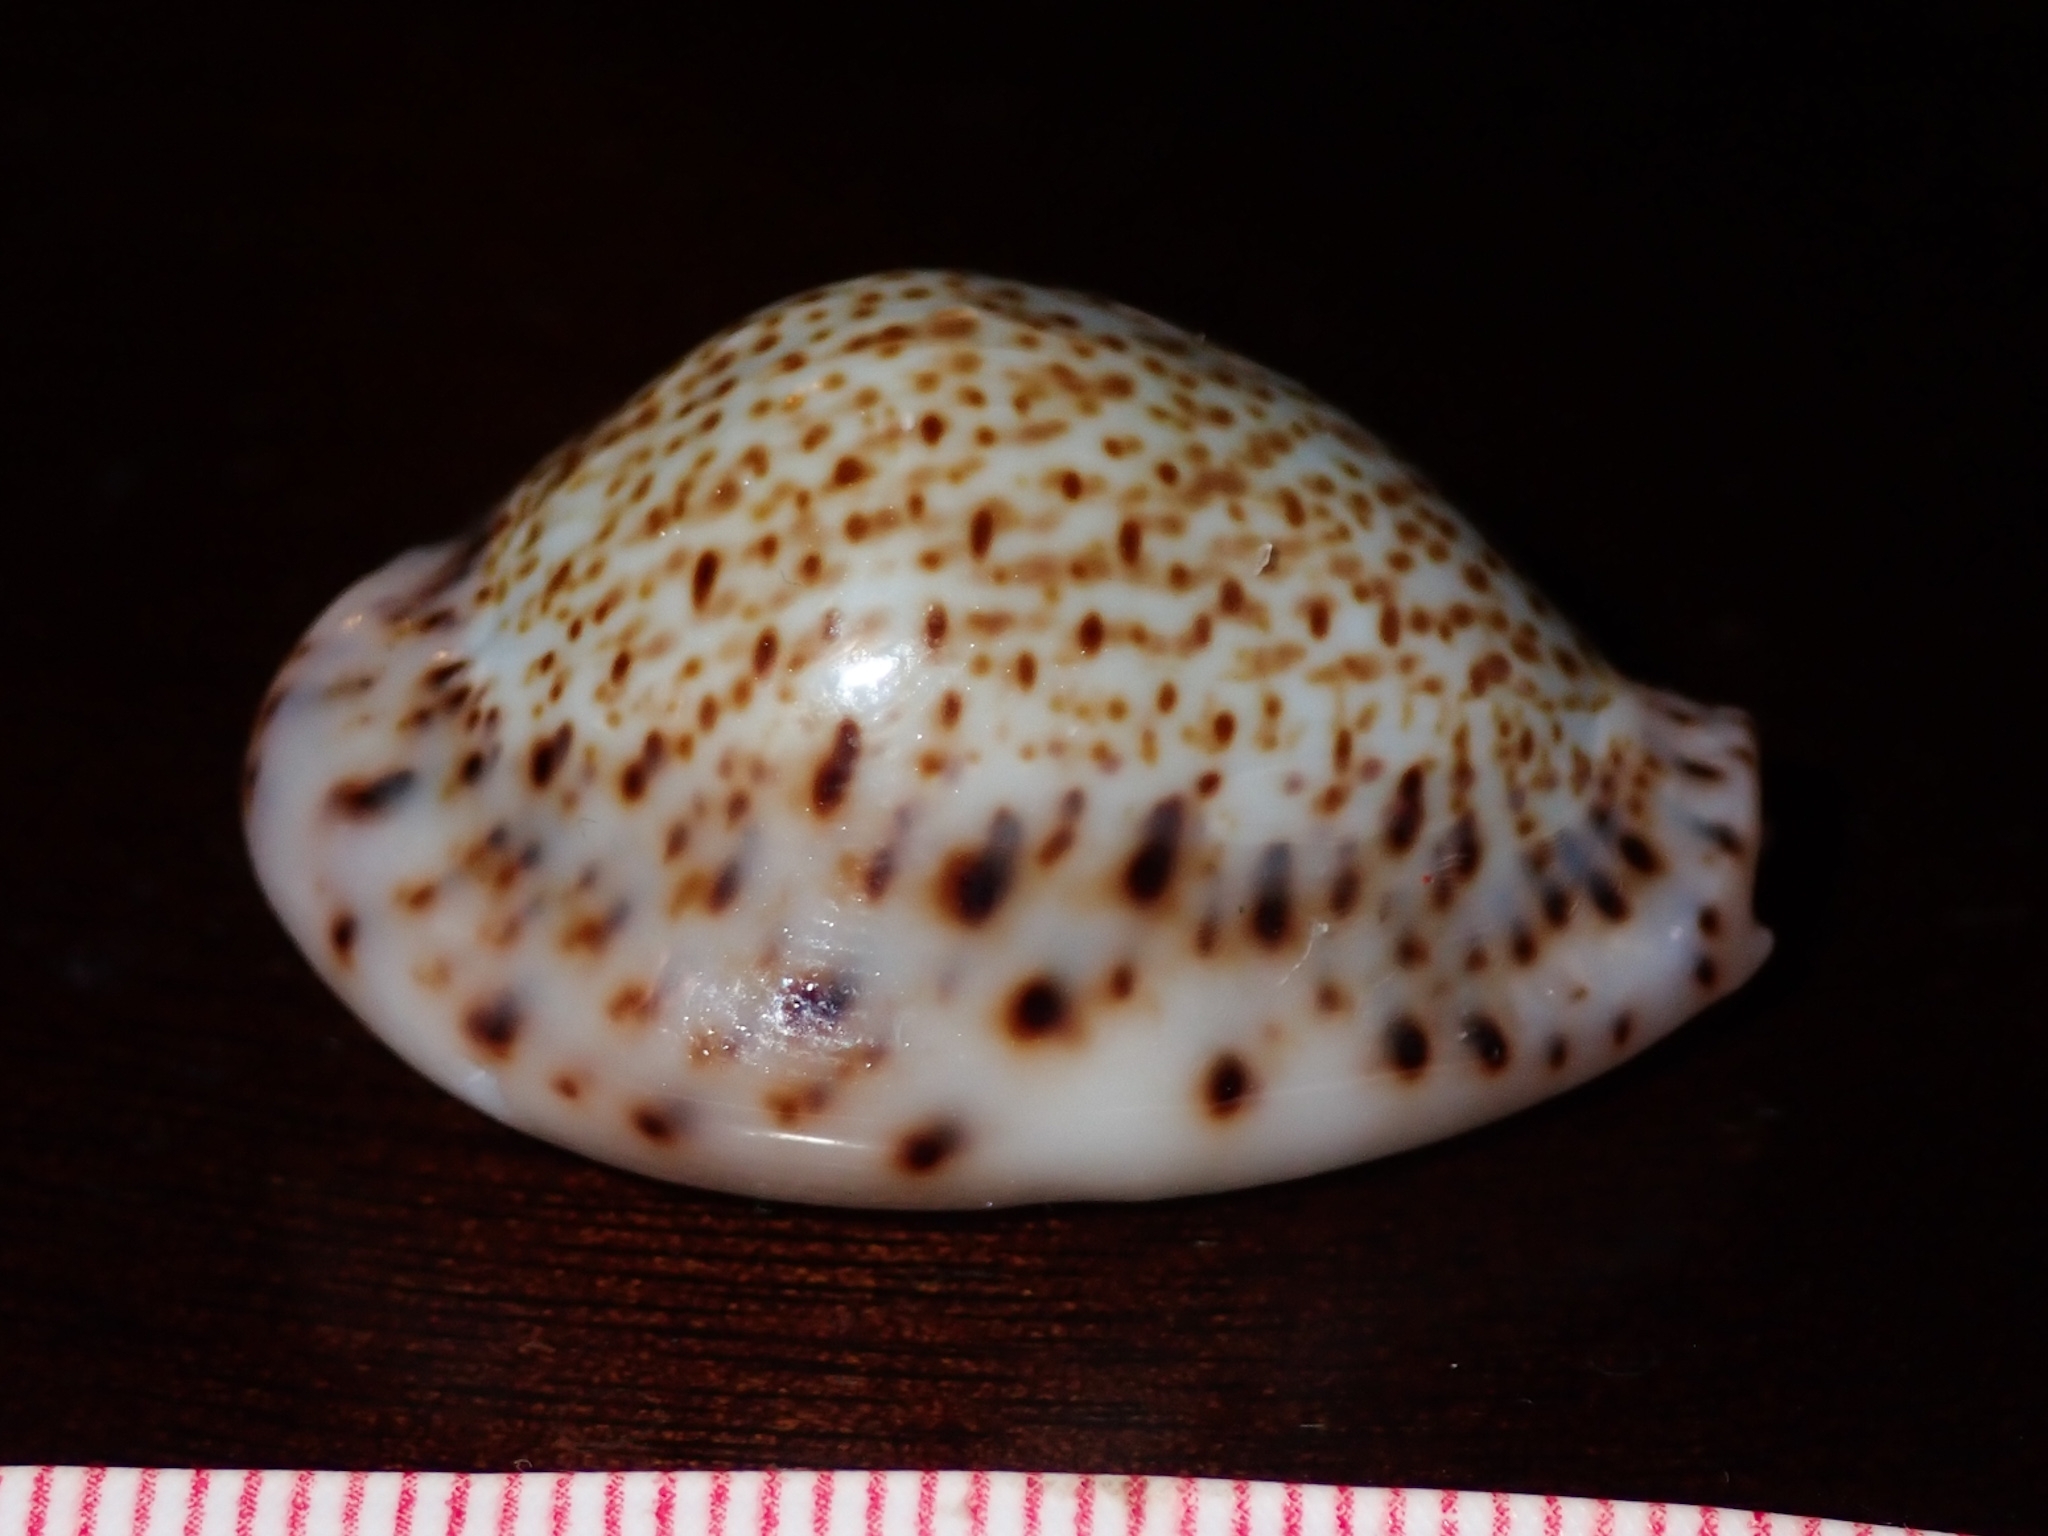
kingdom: Animalia
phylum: Mollusca
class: Gastropoda
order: Littorinimorpha
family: Cypraeidae
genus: Naria
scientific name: Naria turdus
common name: Thrush cowrie
